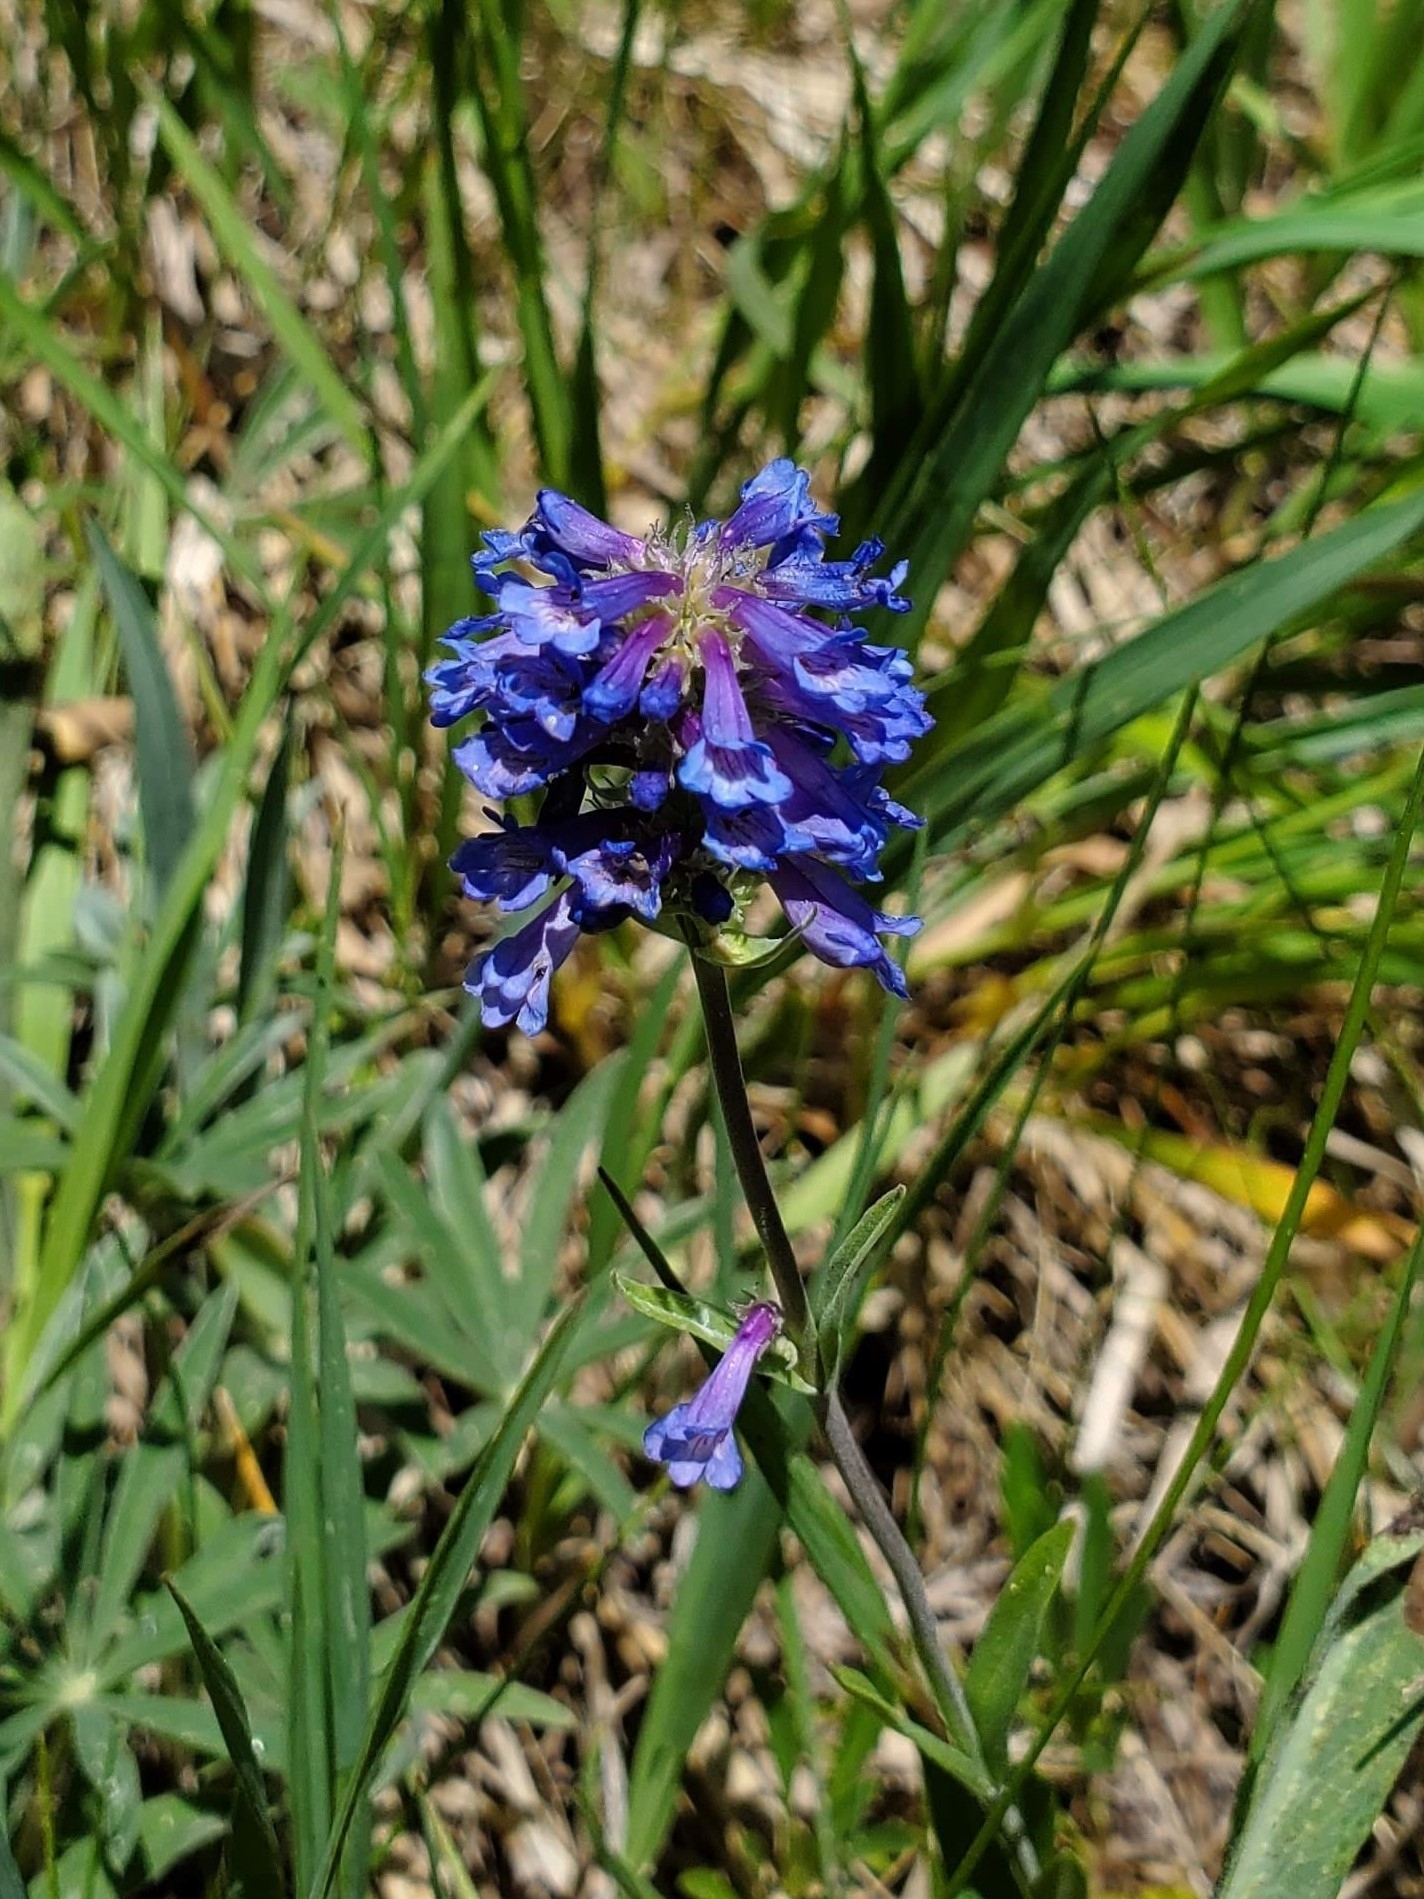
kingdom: Plantae
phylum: Tracheophyta
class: Magnoliopsida
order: Lamiales
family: Plantaginaceae
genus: Penstemon
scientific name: Penstemon rydbergii
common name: Rydberg's beardtongue
